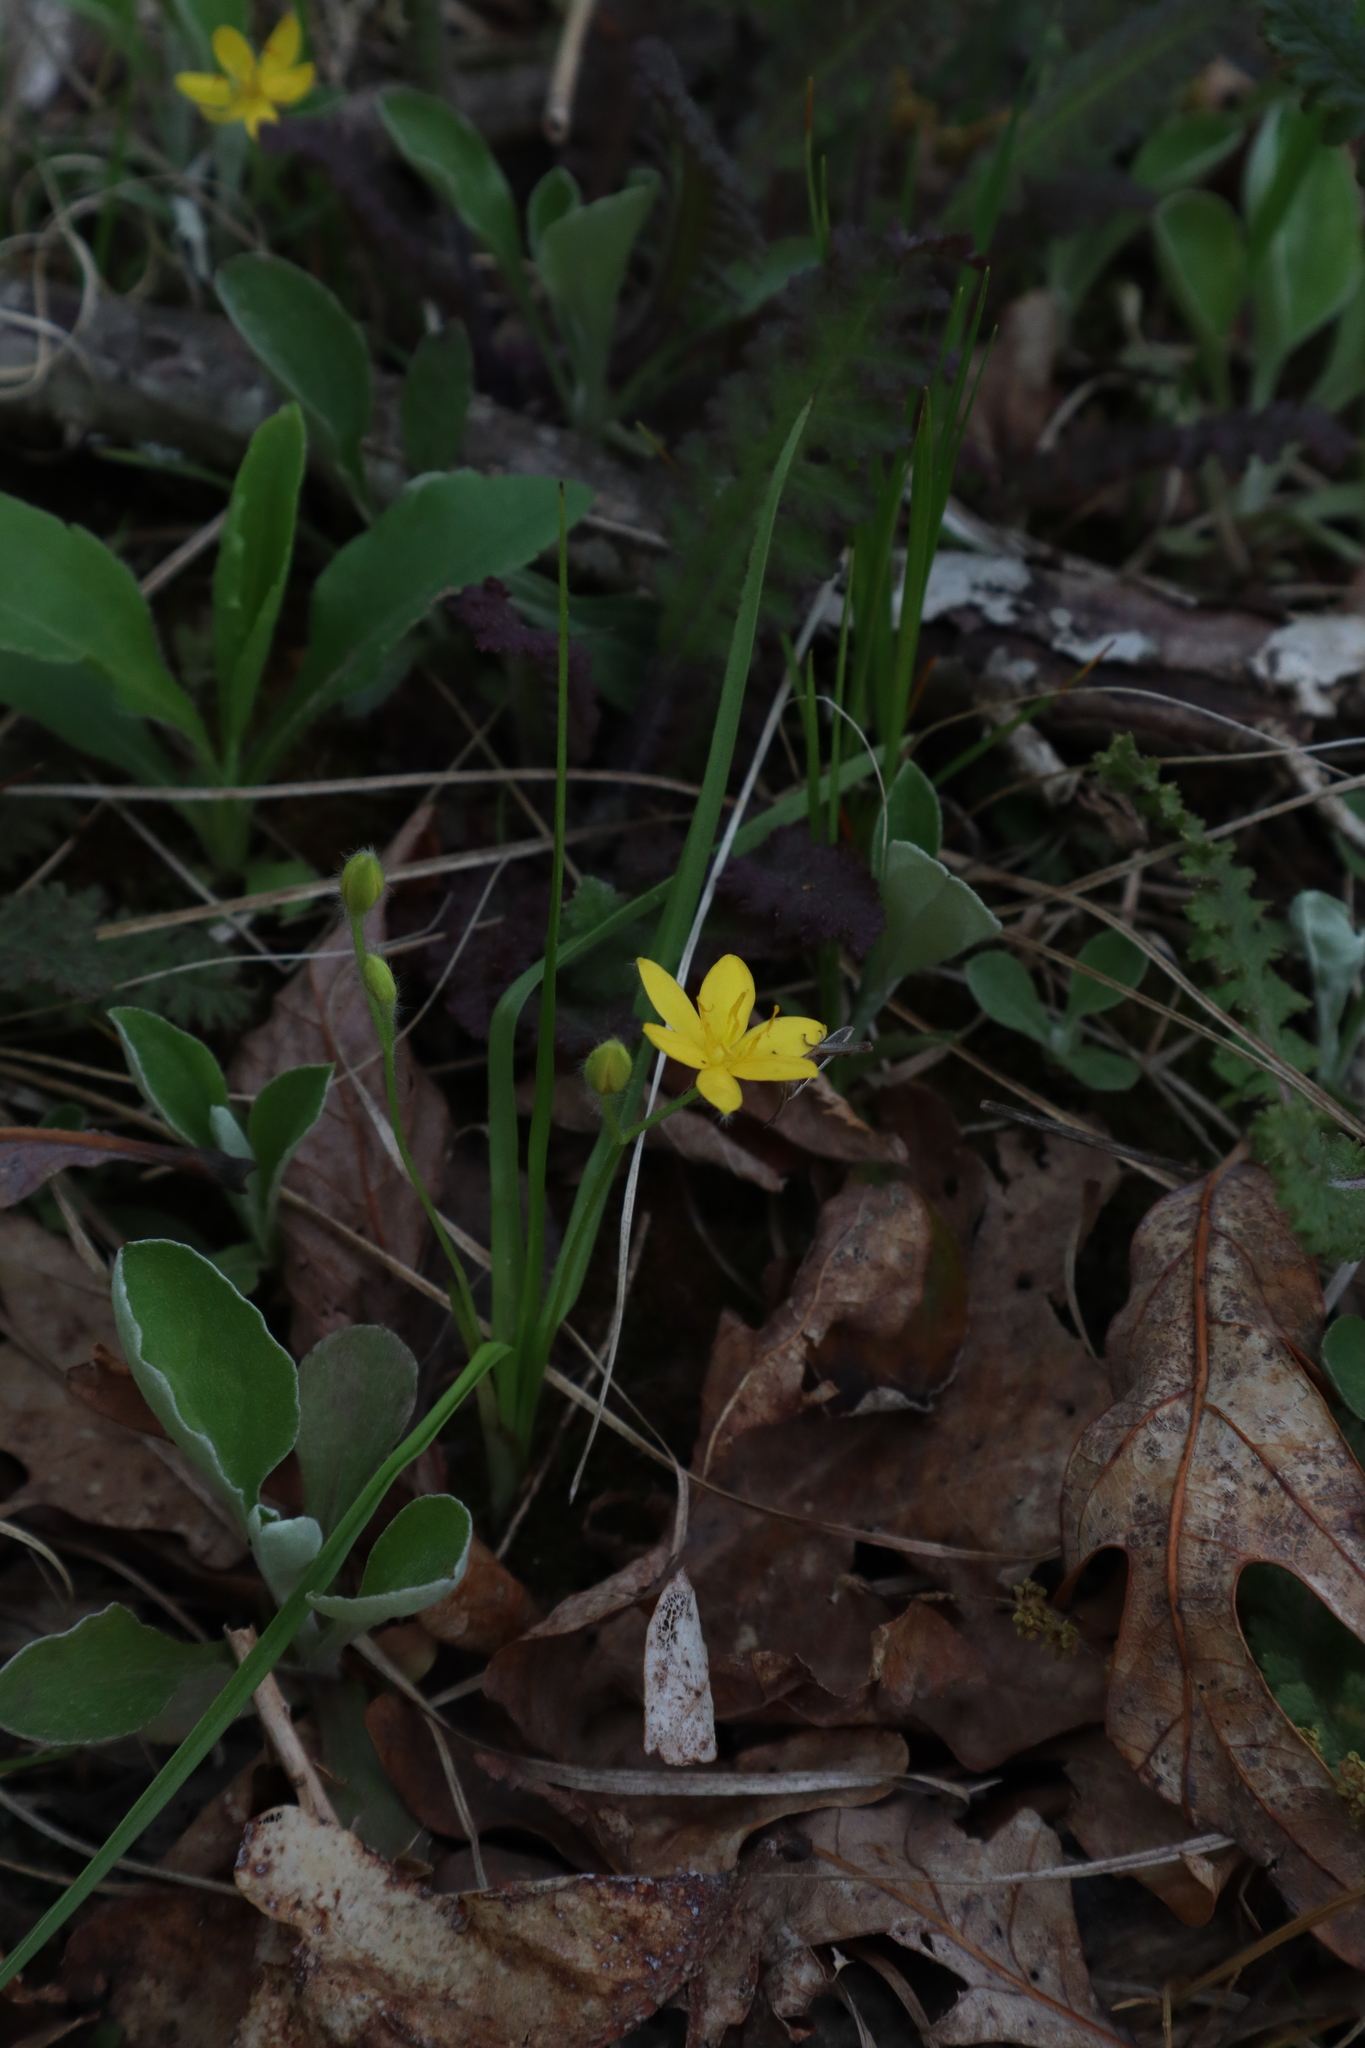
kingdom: Plantae
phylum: Tracheophyta
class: Liliopsida
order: Asparagales
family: Hypoxidaceae
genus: Hypoxis
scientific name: Hypoxis hirsuta
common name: Common goldstar
